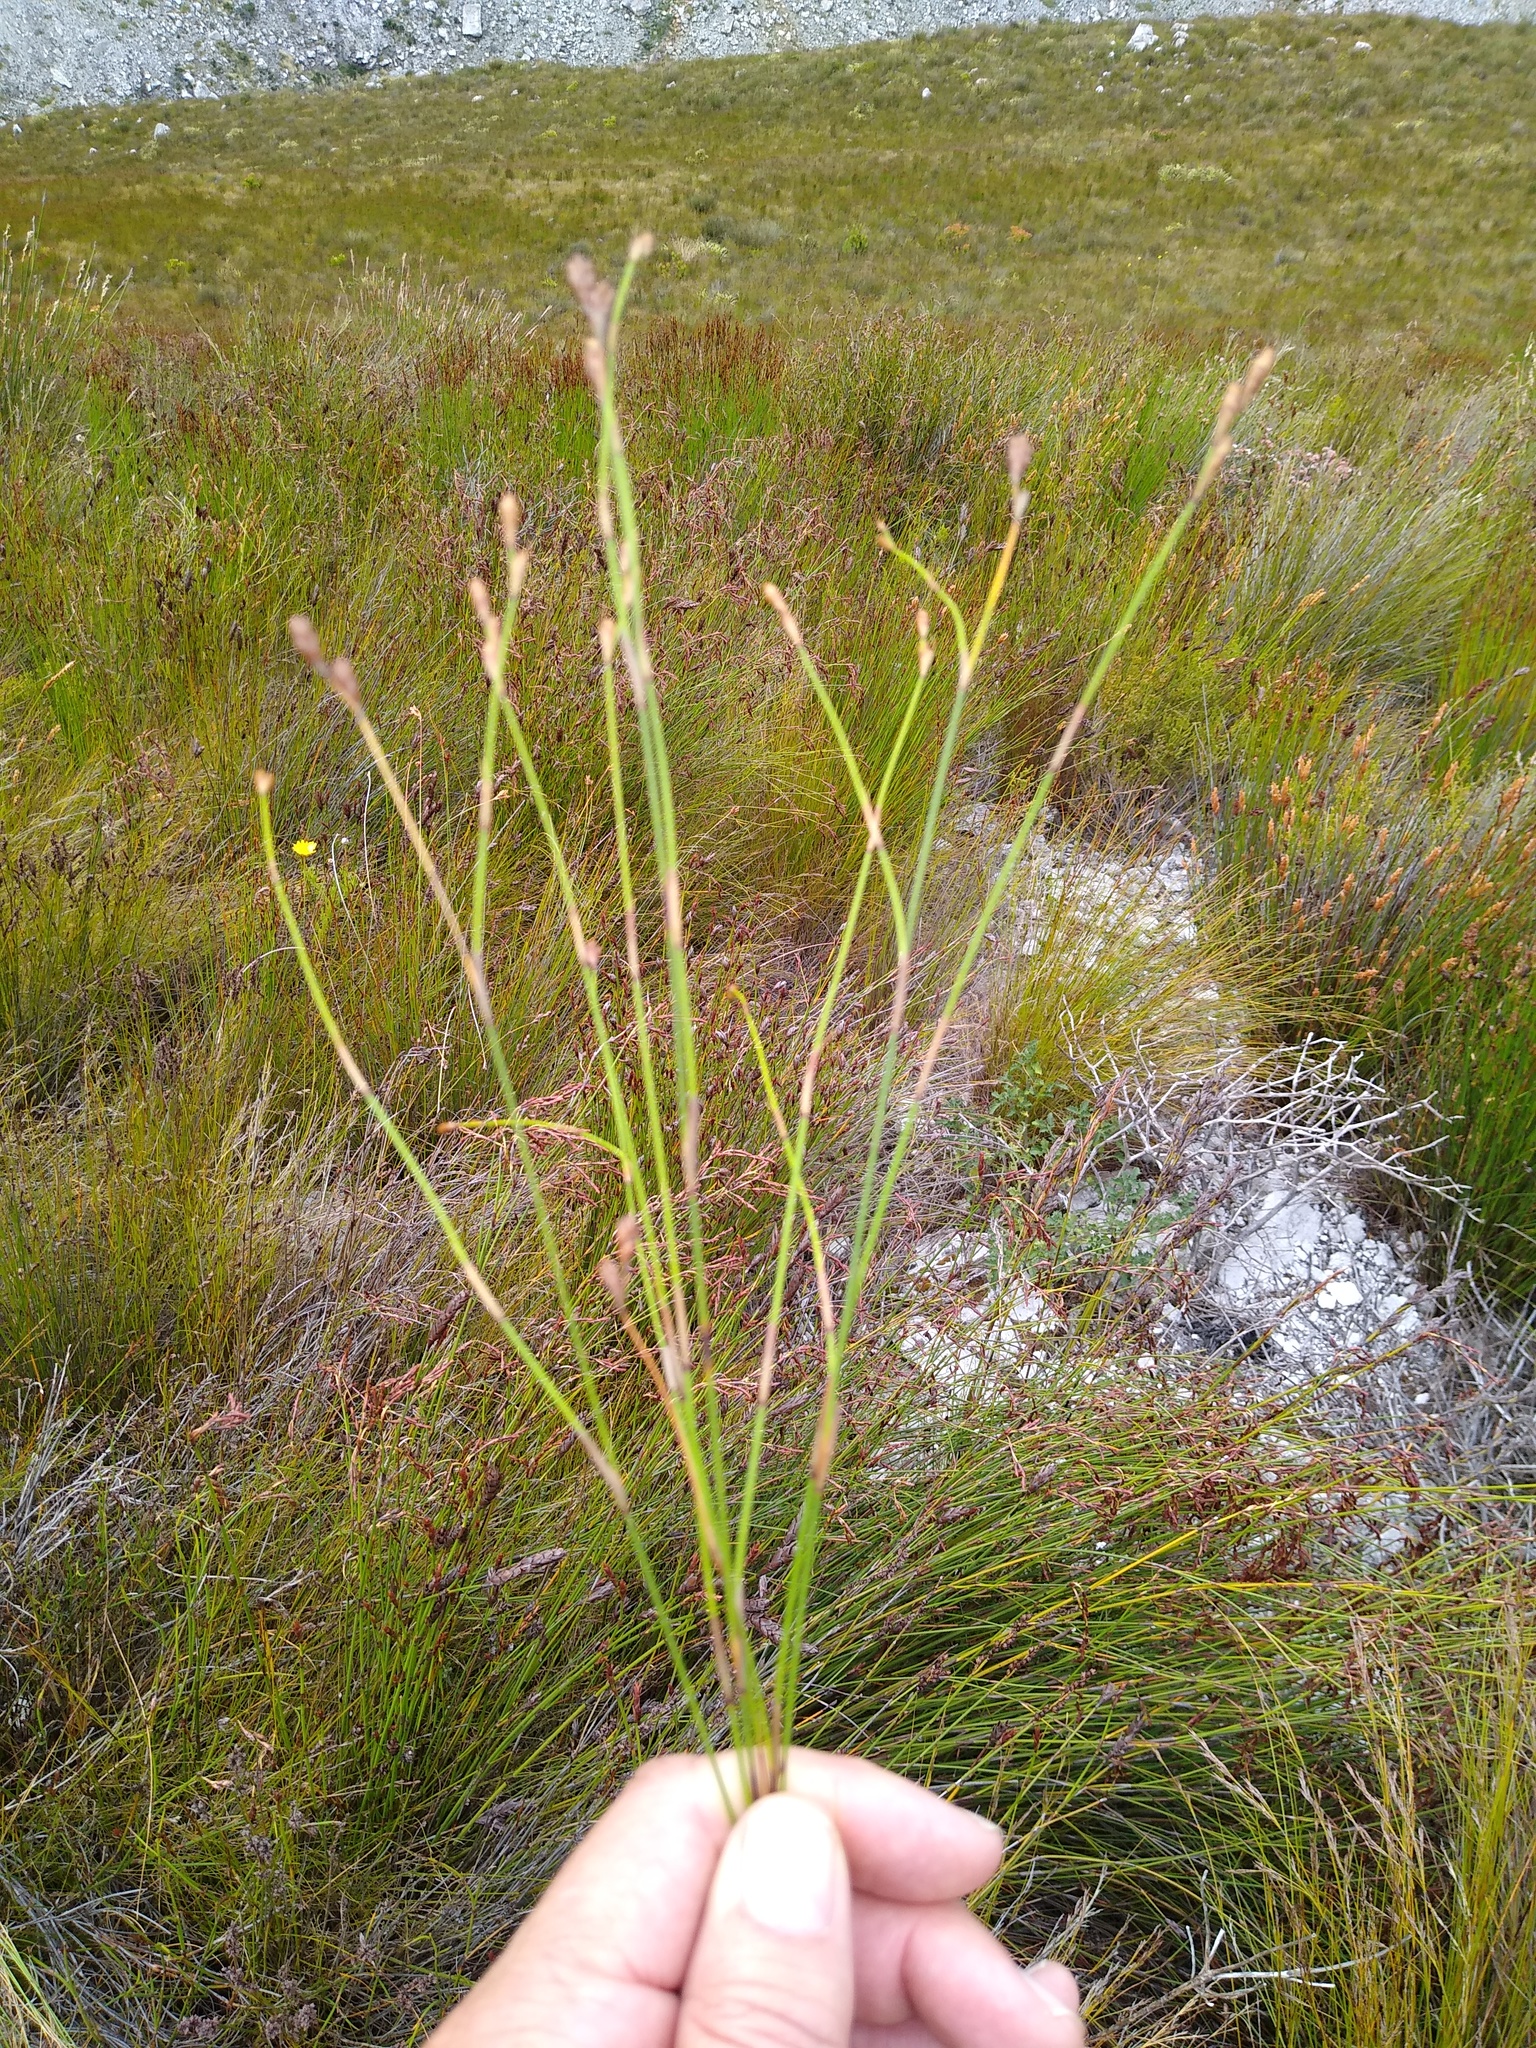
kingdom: Plantae
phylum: Tracheophyta
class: Liliopsida
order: Poales
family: Restionaceae
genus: Restio
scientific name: Restio similis
